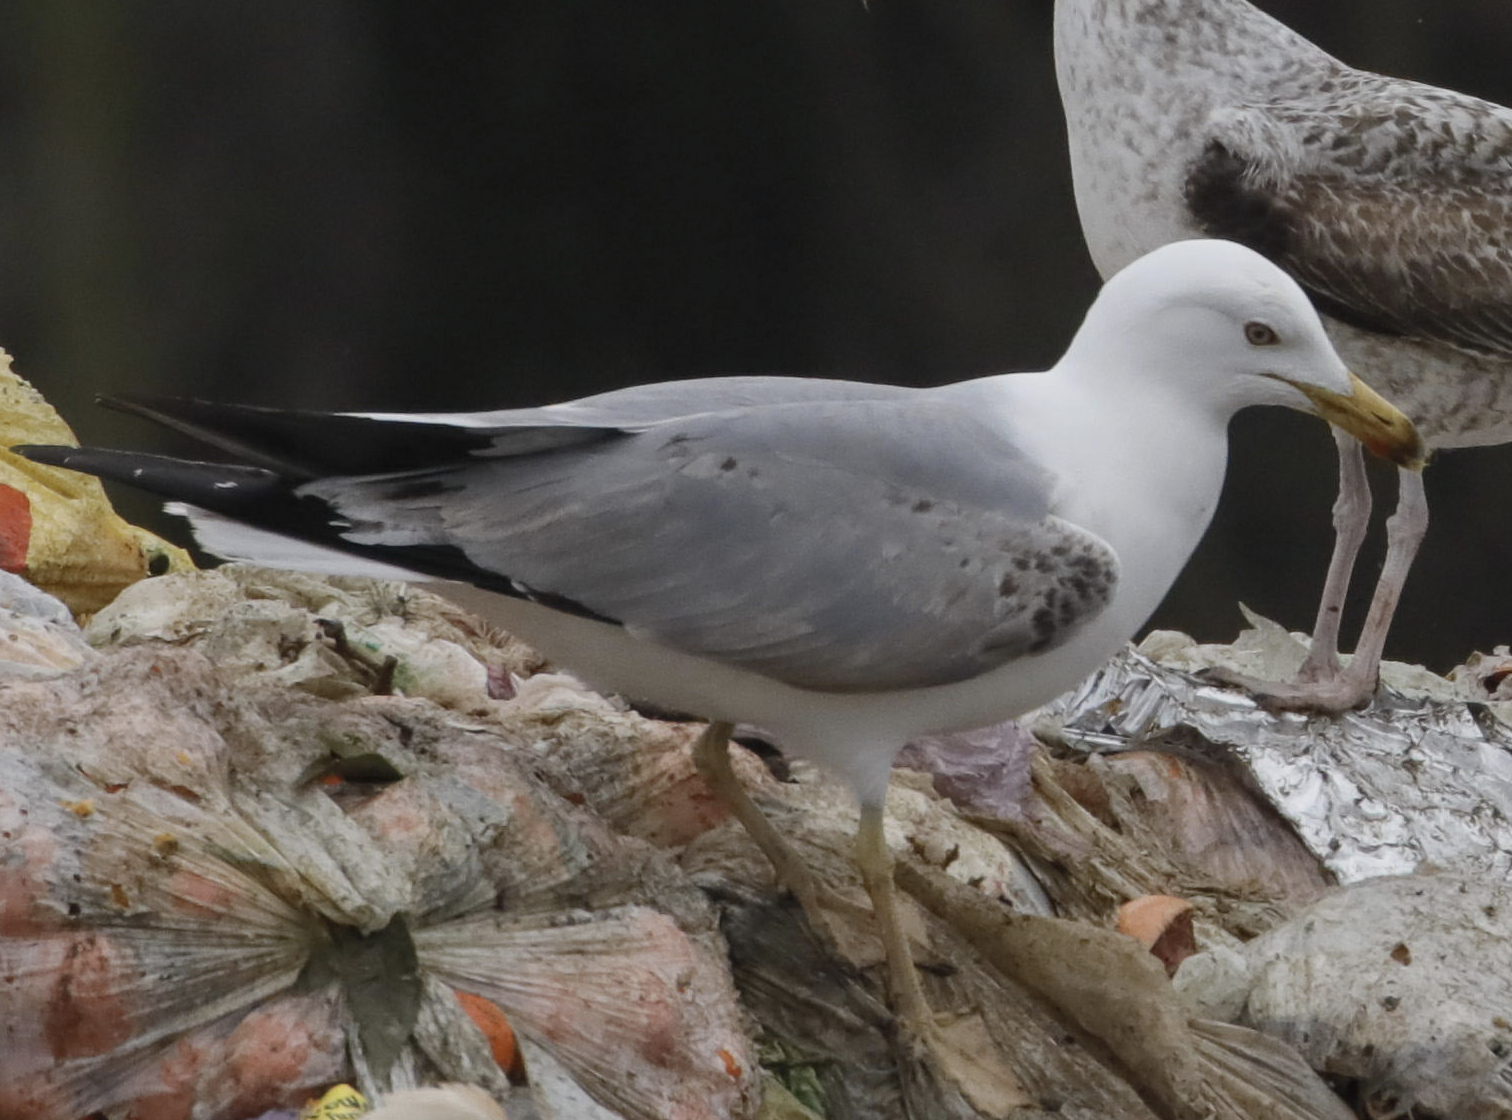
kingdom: Animalia
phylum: Chordata
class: Aves
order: Charadriiformes
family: Laridae
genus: Larus
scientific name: Larus michahellis
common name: Yellow-legged gull
